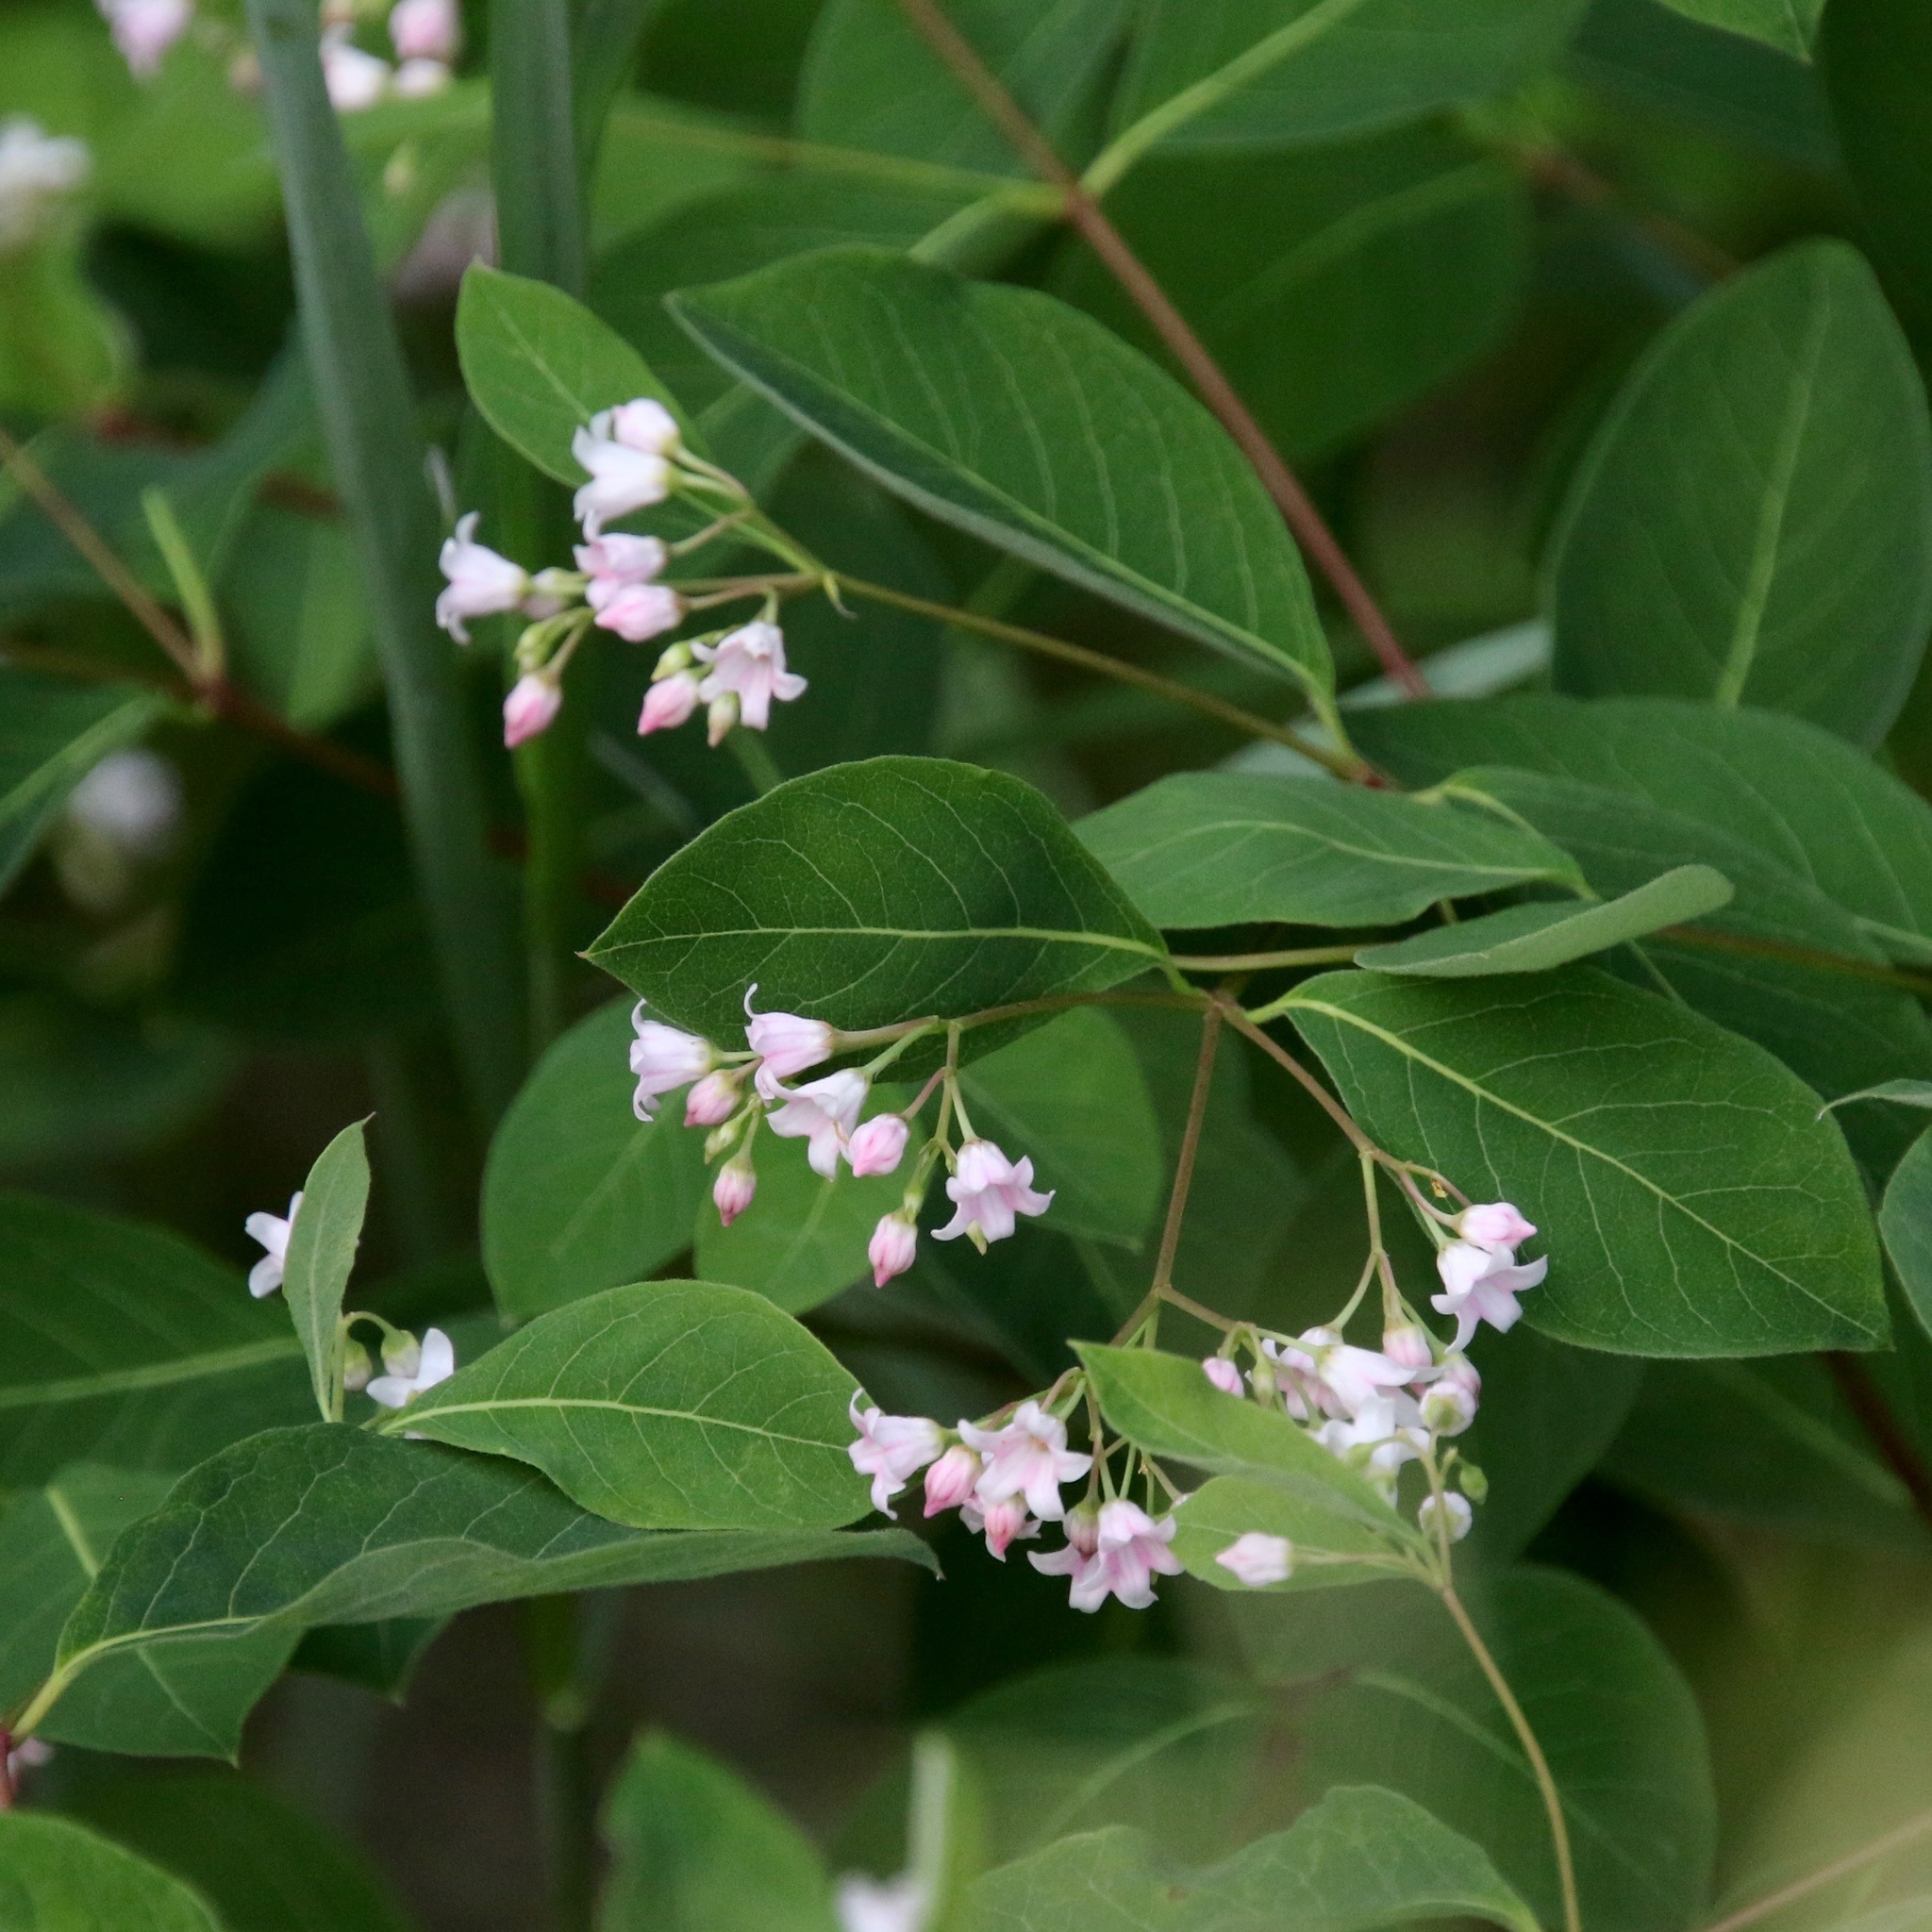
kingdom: Plantae
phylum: Tracheophyta
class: Magnoliopsida
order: Gentianales
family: Apocynaceae
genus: Apocynum
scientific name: Apocynum androsaemifolium
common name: Spreading dogbane
